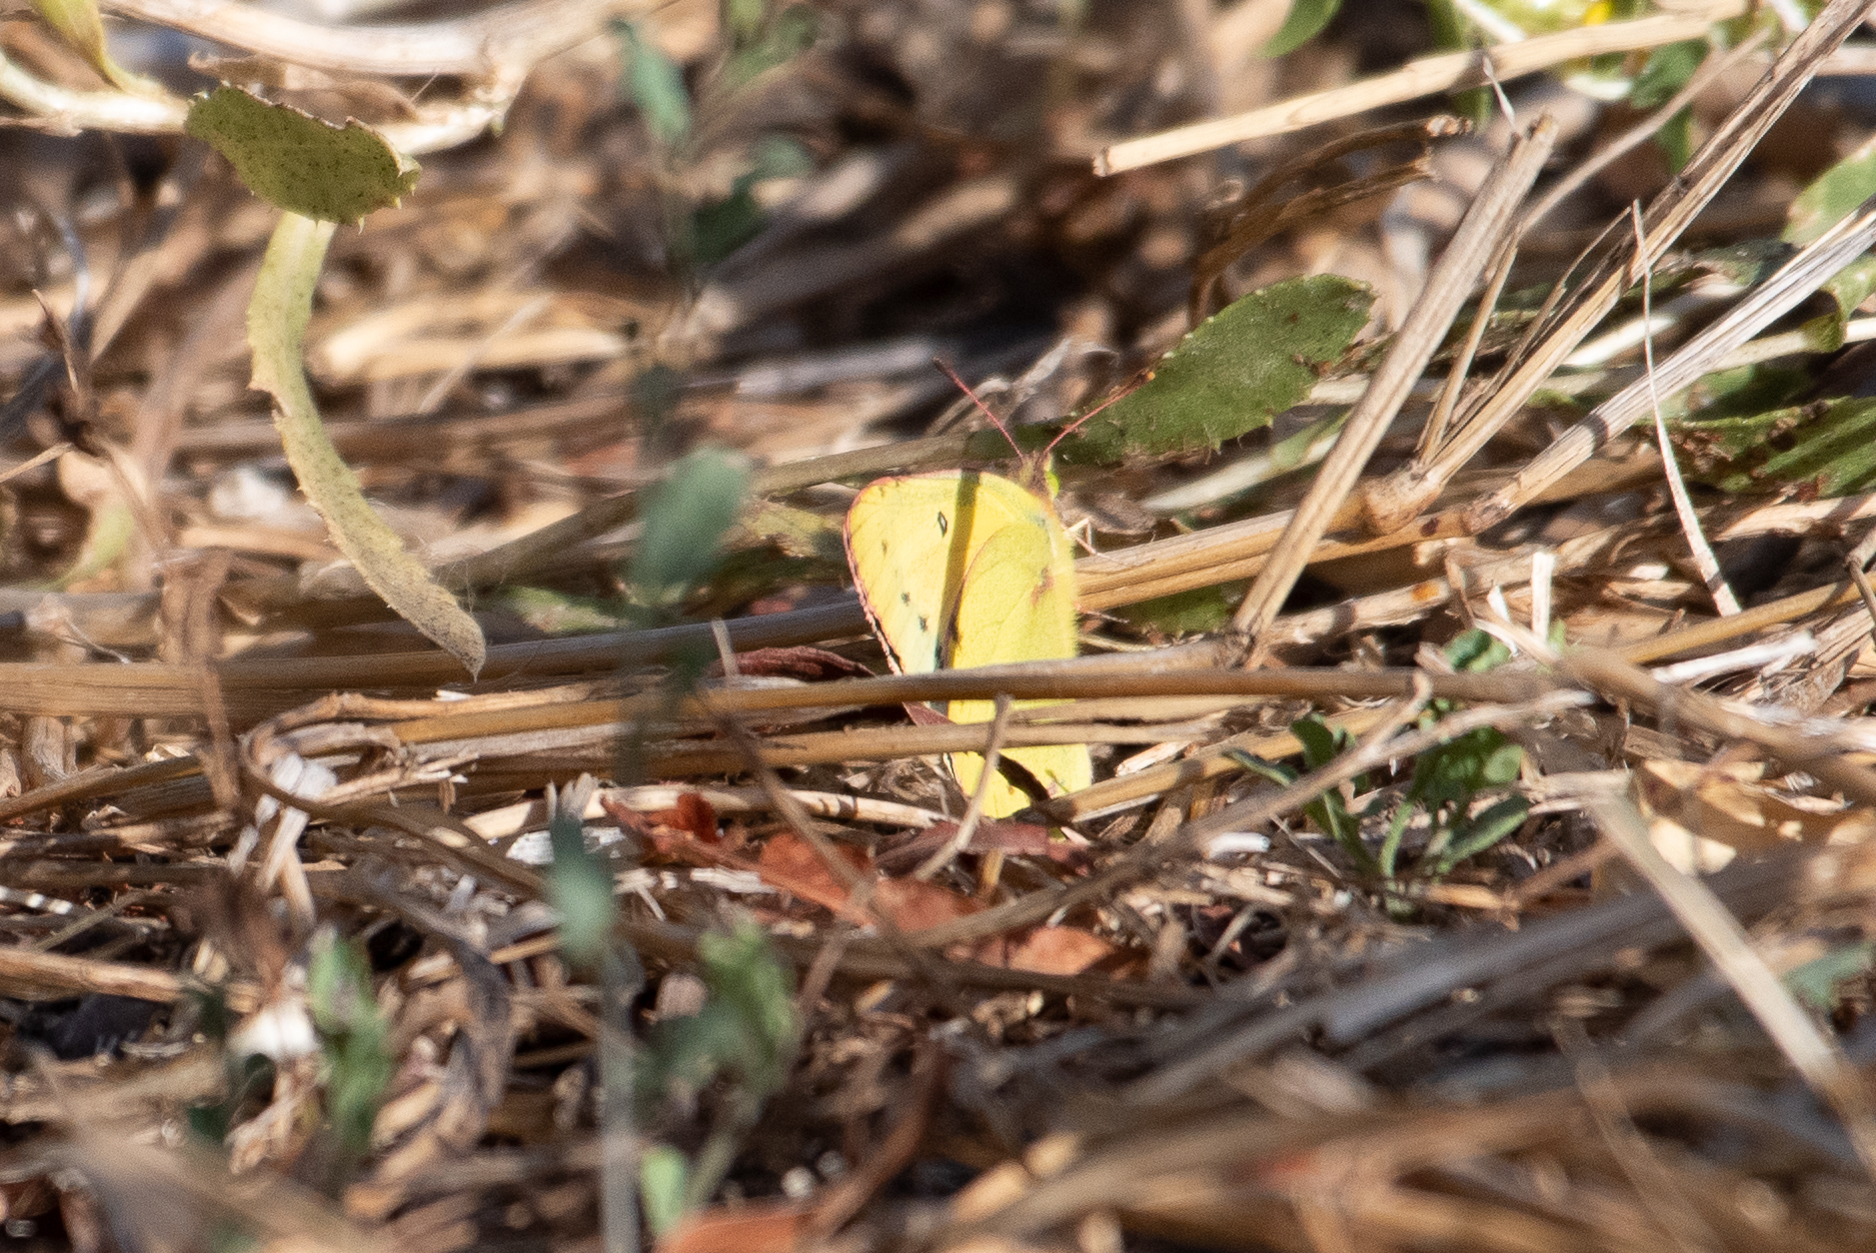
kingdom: Animalia
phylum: Arthropoda
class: Insecta
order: Lepidoptera
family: Pieridae
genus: Colias
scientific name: Colias eurytheme
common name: Alfalfa butterfly
